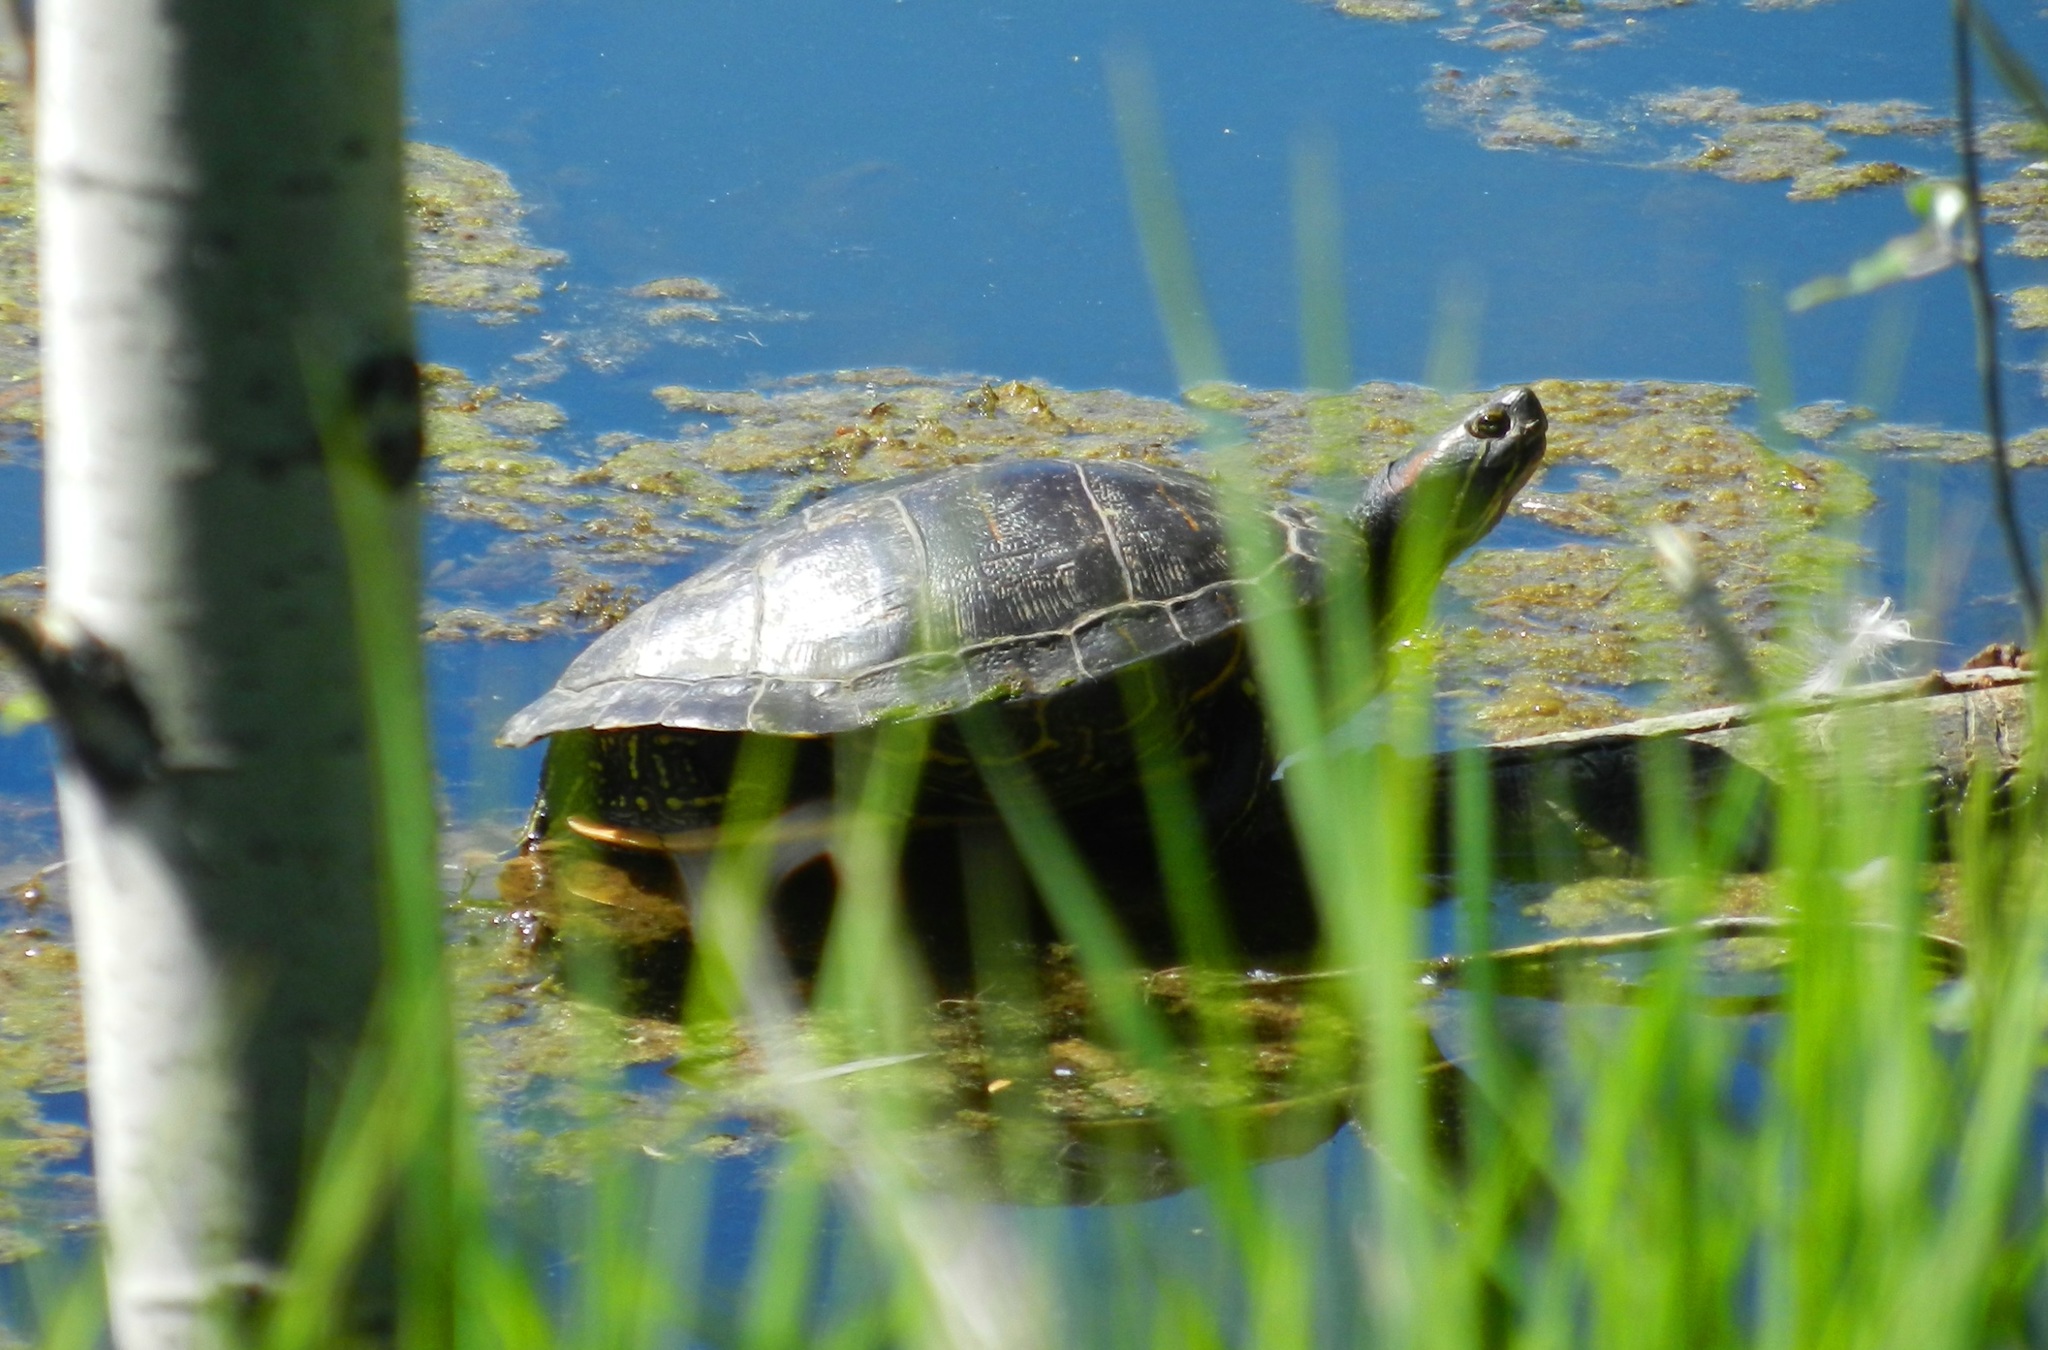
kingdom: Animalia
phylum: Chordata
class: Testudines
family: Emydidae
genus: Trachemys
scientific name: Trachemys scripta
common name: Slider
